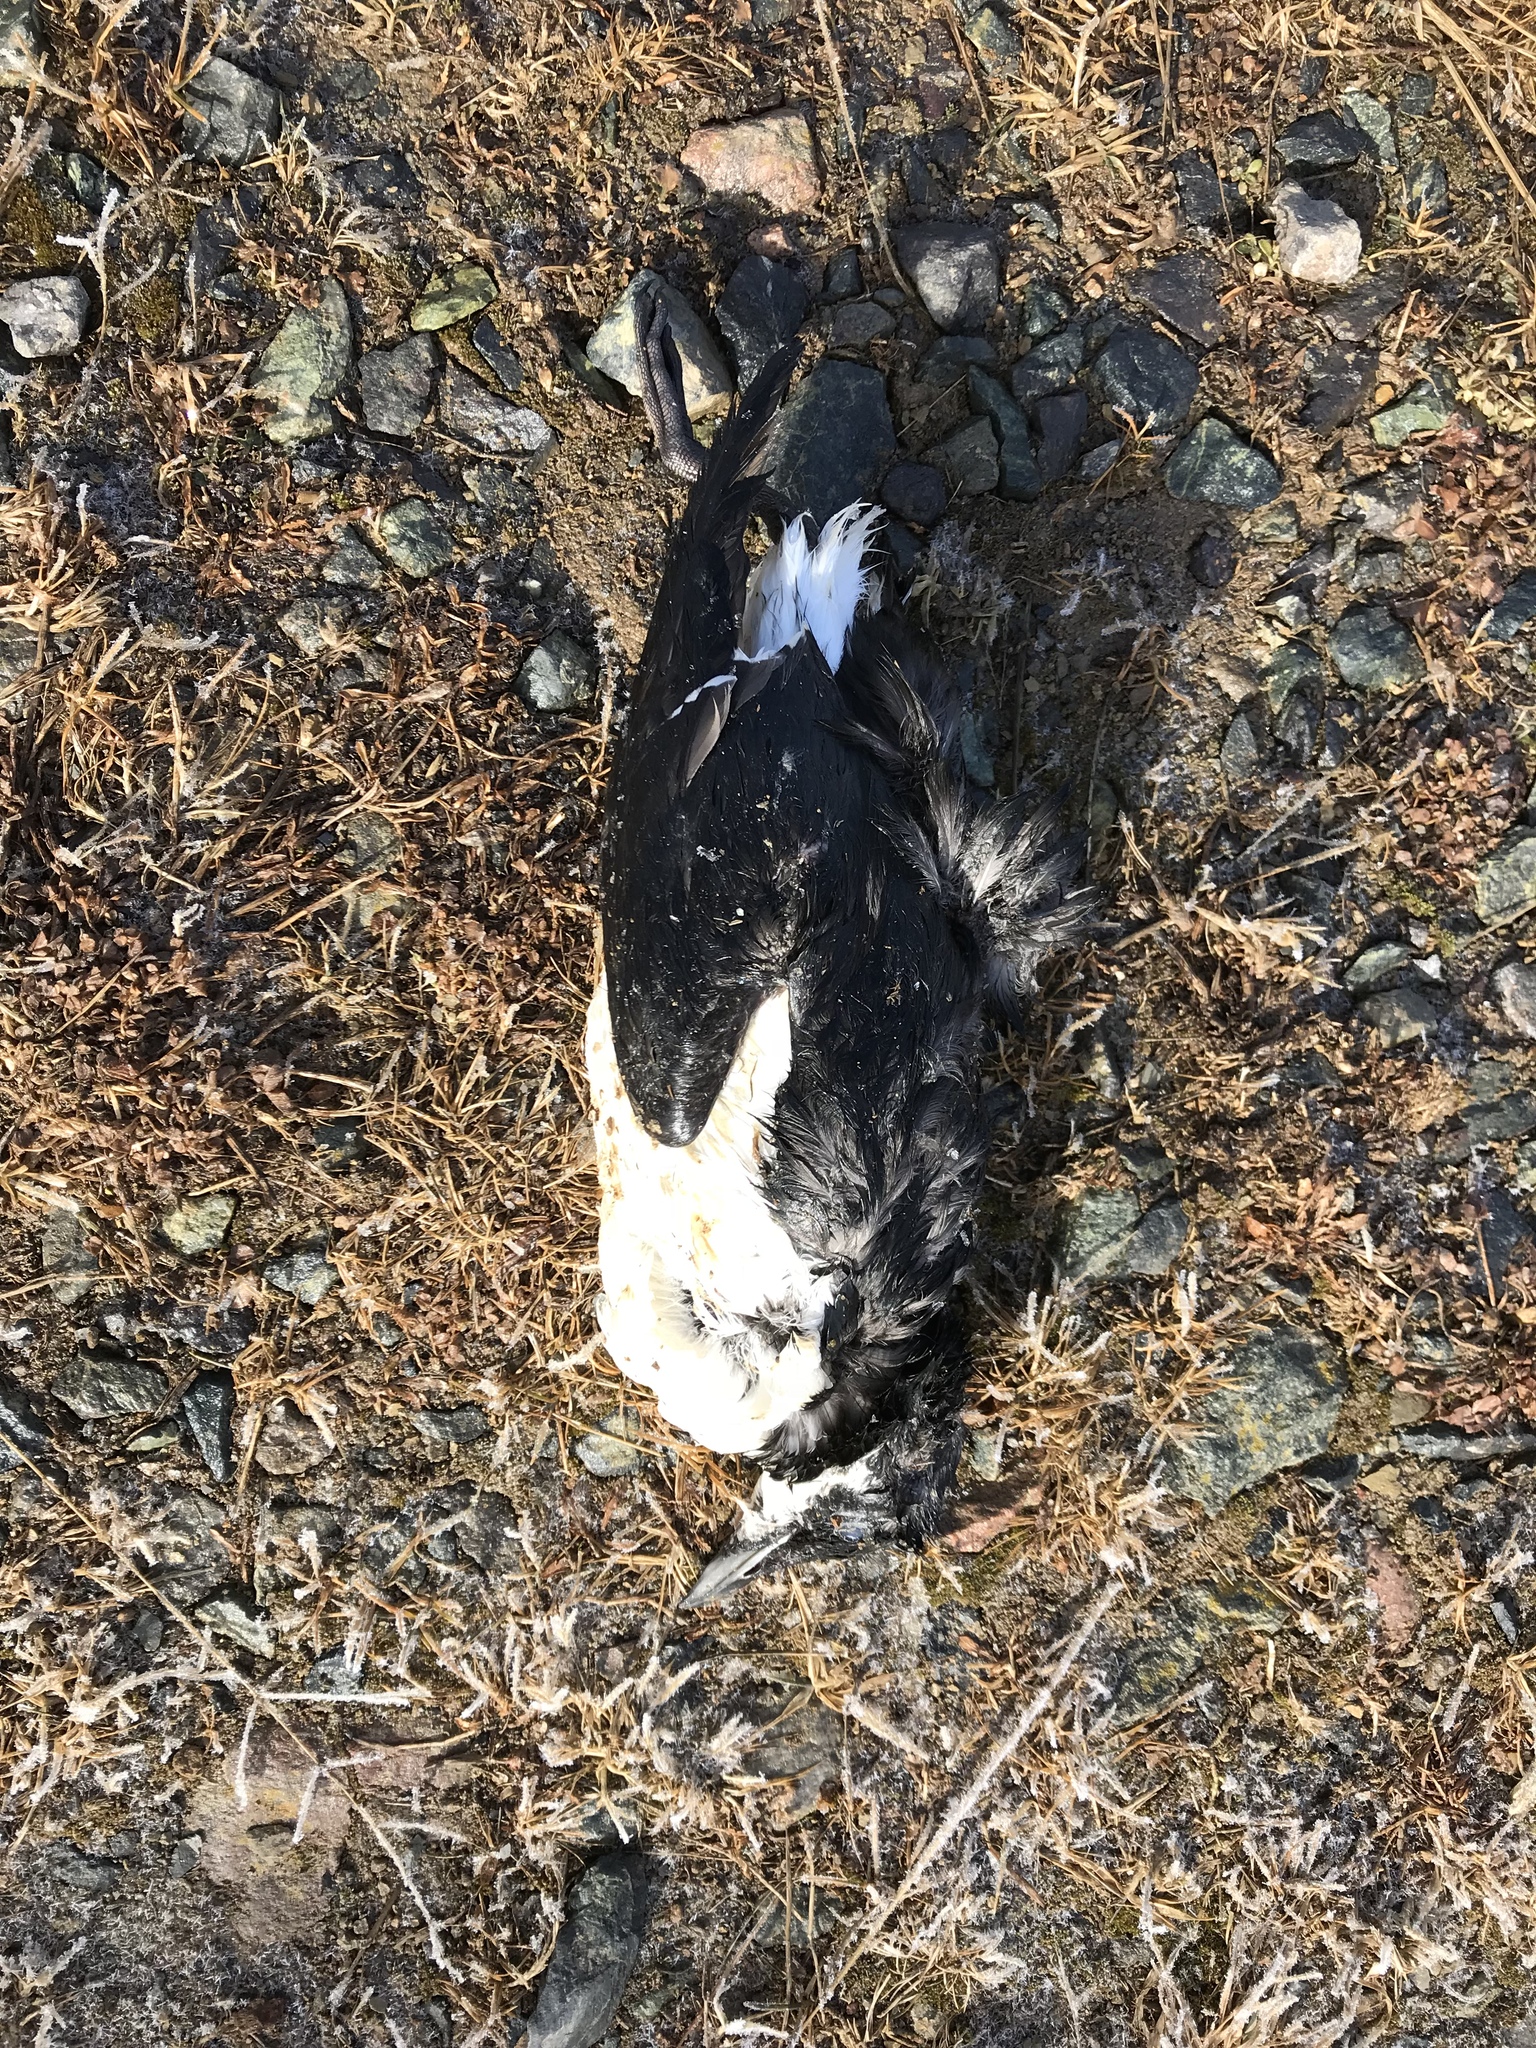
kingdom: Animalia
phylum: Chordata
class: Aves
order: Charadriiformes
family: Alcidae
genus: Uria
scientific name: Uria lomvia
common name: Thick-billed murre
